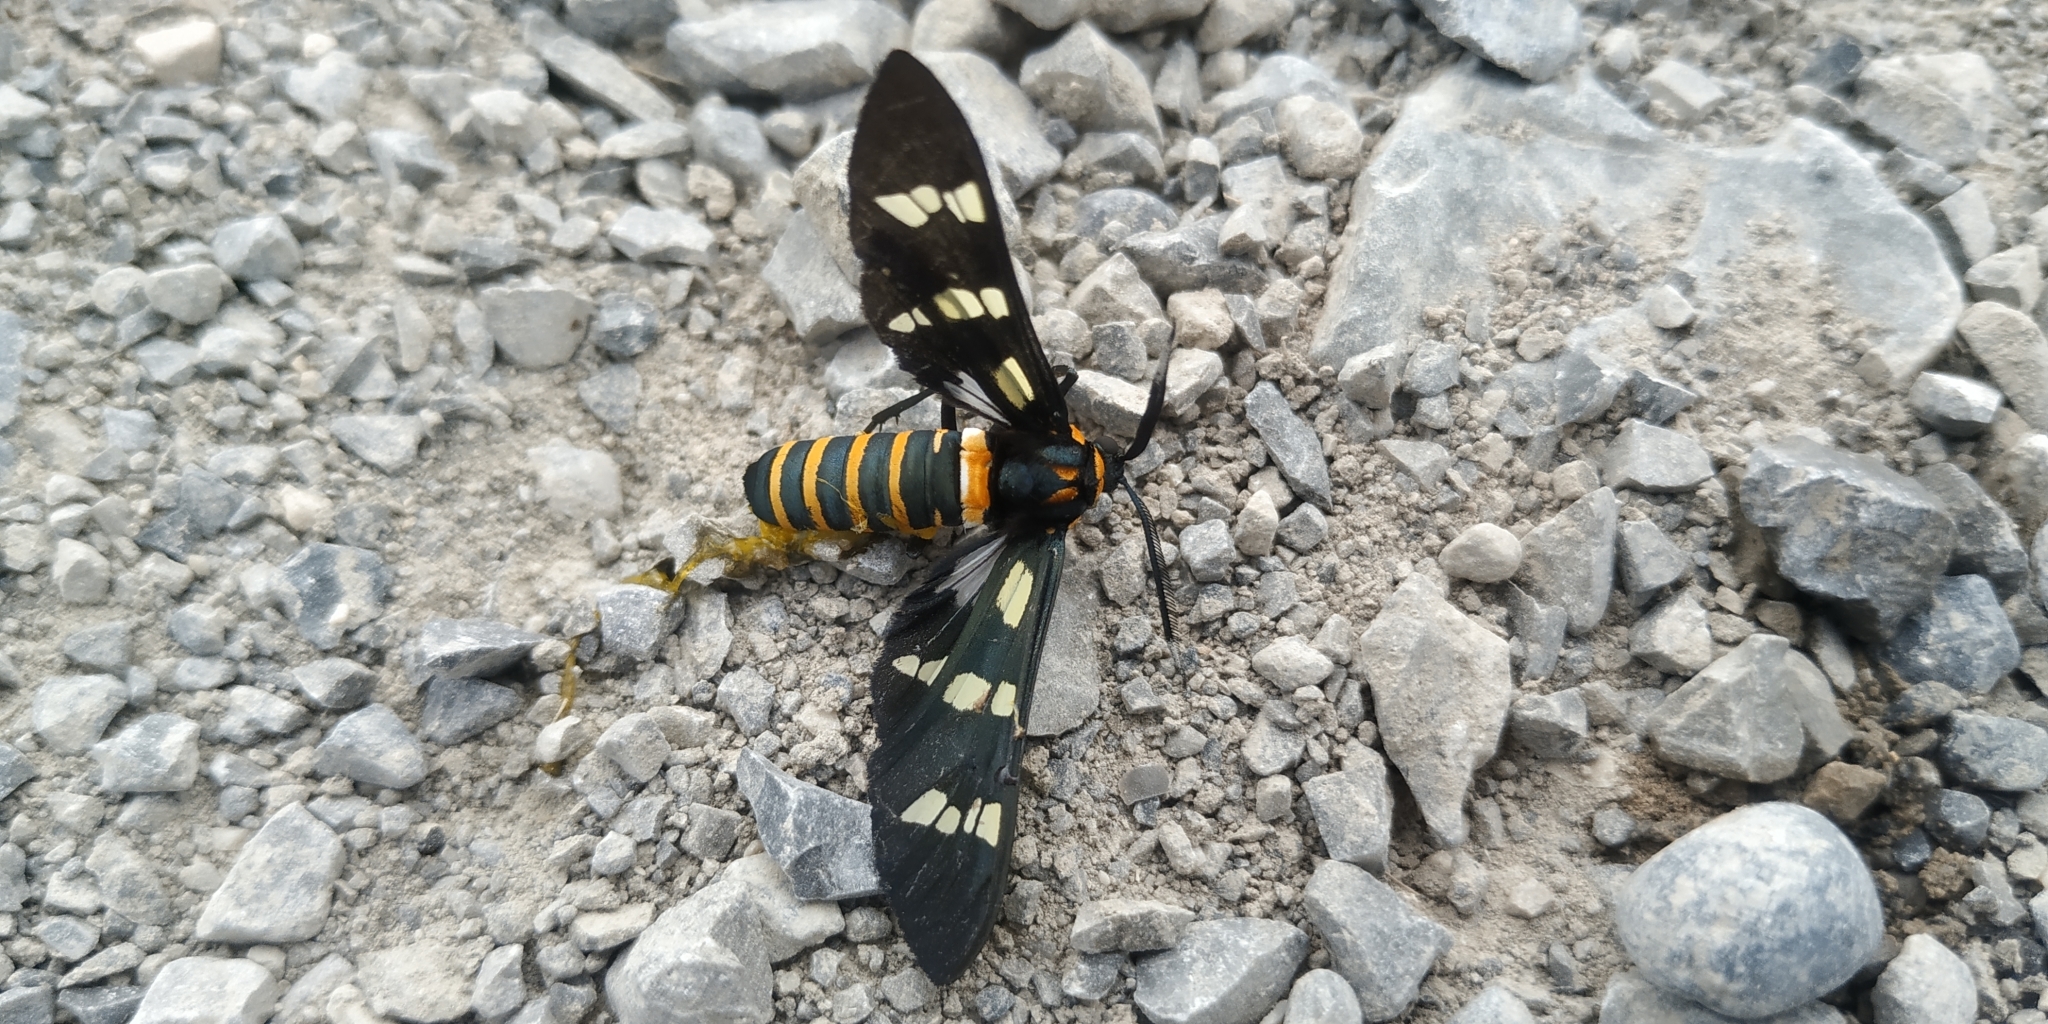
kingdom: Animalia
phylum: Arthropoda
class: Insecta
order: Lepidoptera
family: Erebidae
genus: Syntomeida
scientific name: Syntomeida melanthus
